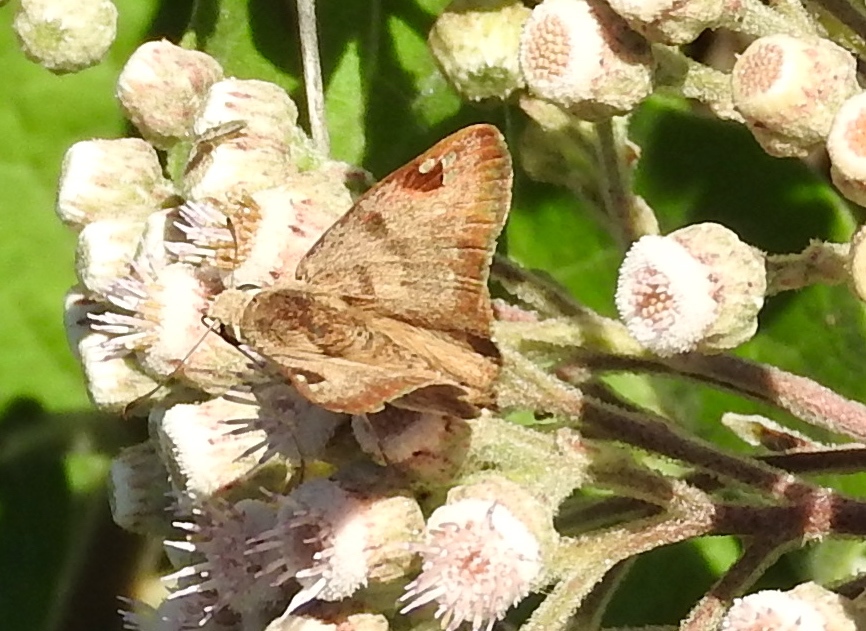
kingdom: Animalia
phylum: Arthropoda
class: Insecta
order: Lepidoptera
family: Hesperiidae
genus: Arteurotia
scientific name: Arteurotia tractipennis
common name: Starred skipper
